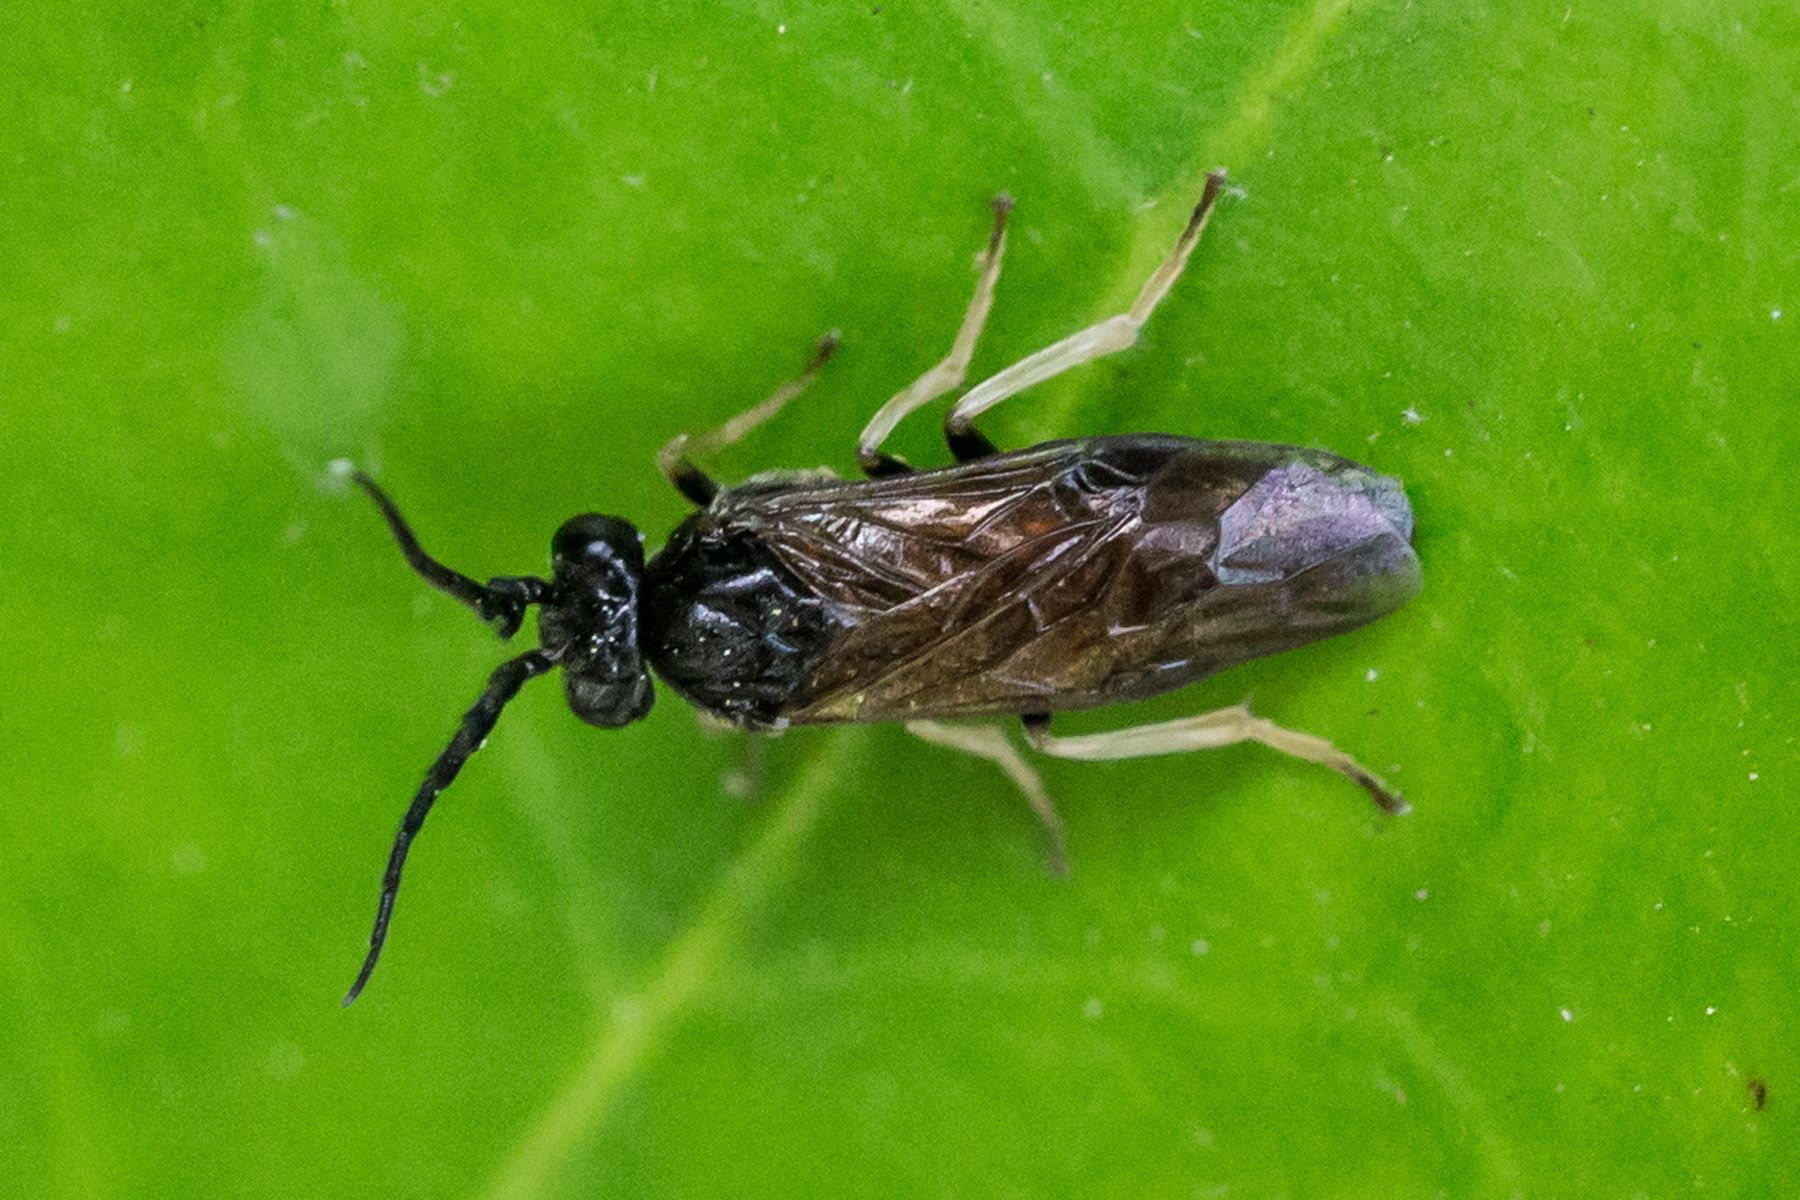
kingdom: Animalia
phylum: Arthropoda
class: Insecta
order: Hymenoptera
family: Tenthredinidae
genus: Cladius
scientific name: Cladius pectinicornis
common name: Sawfly
